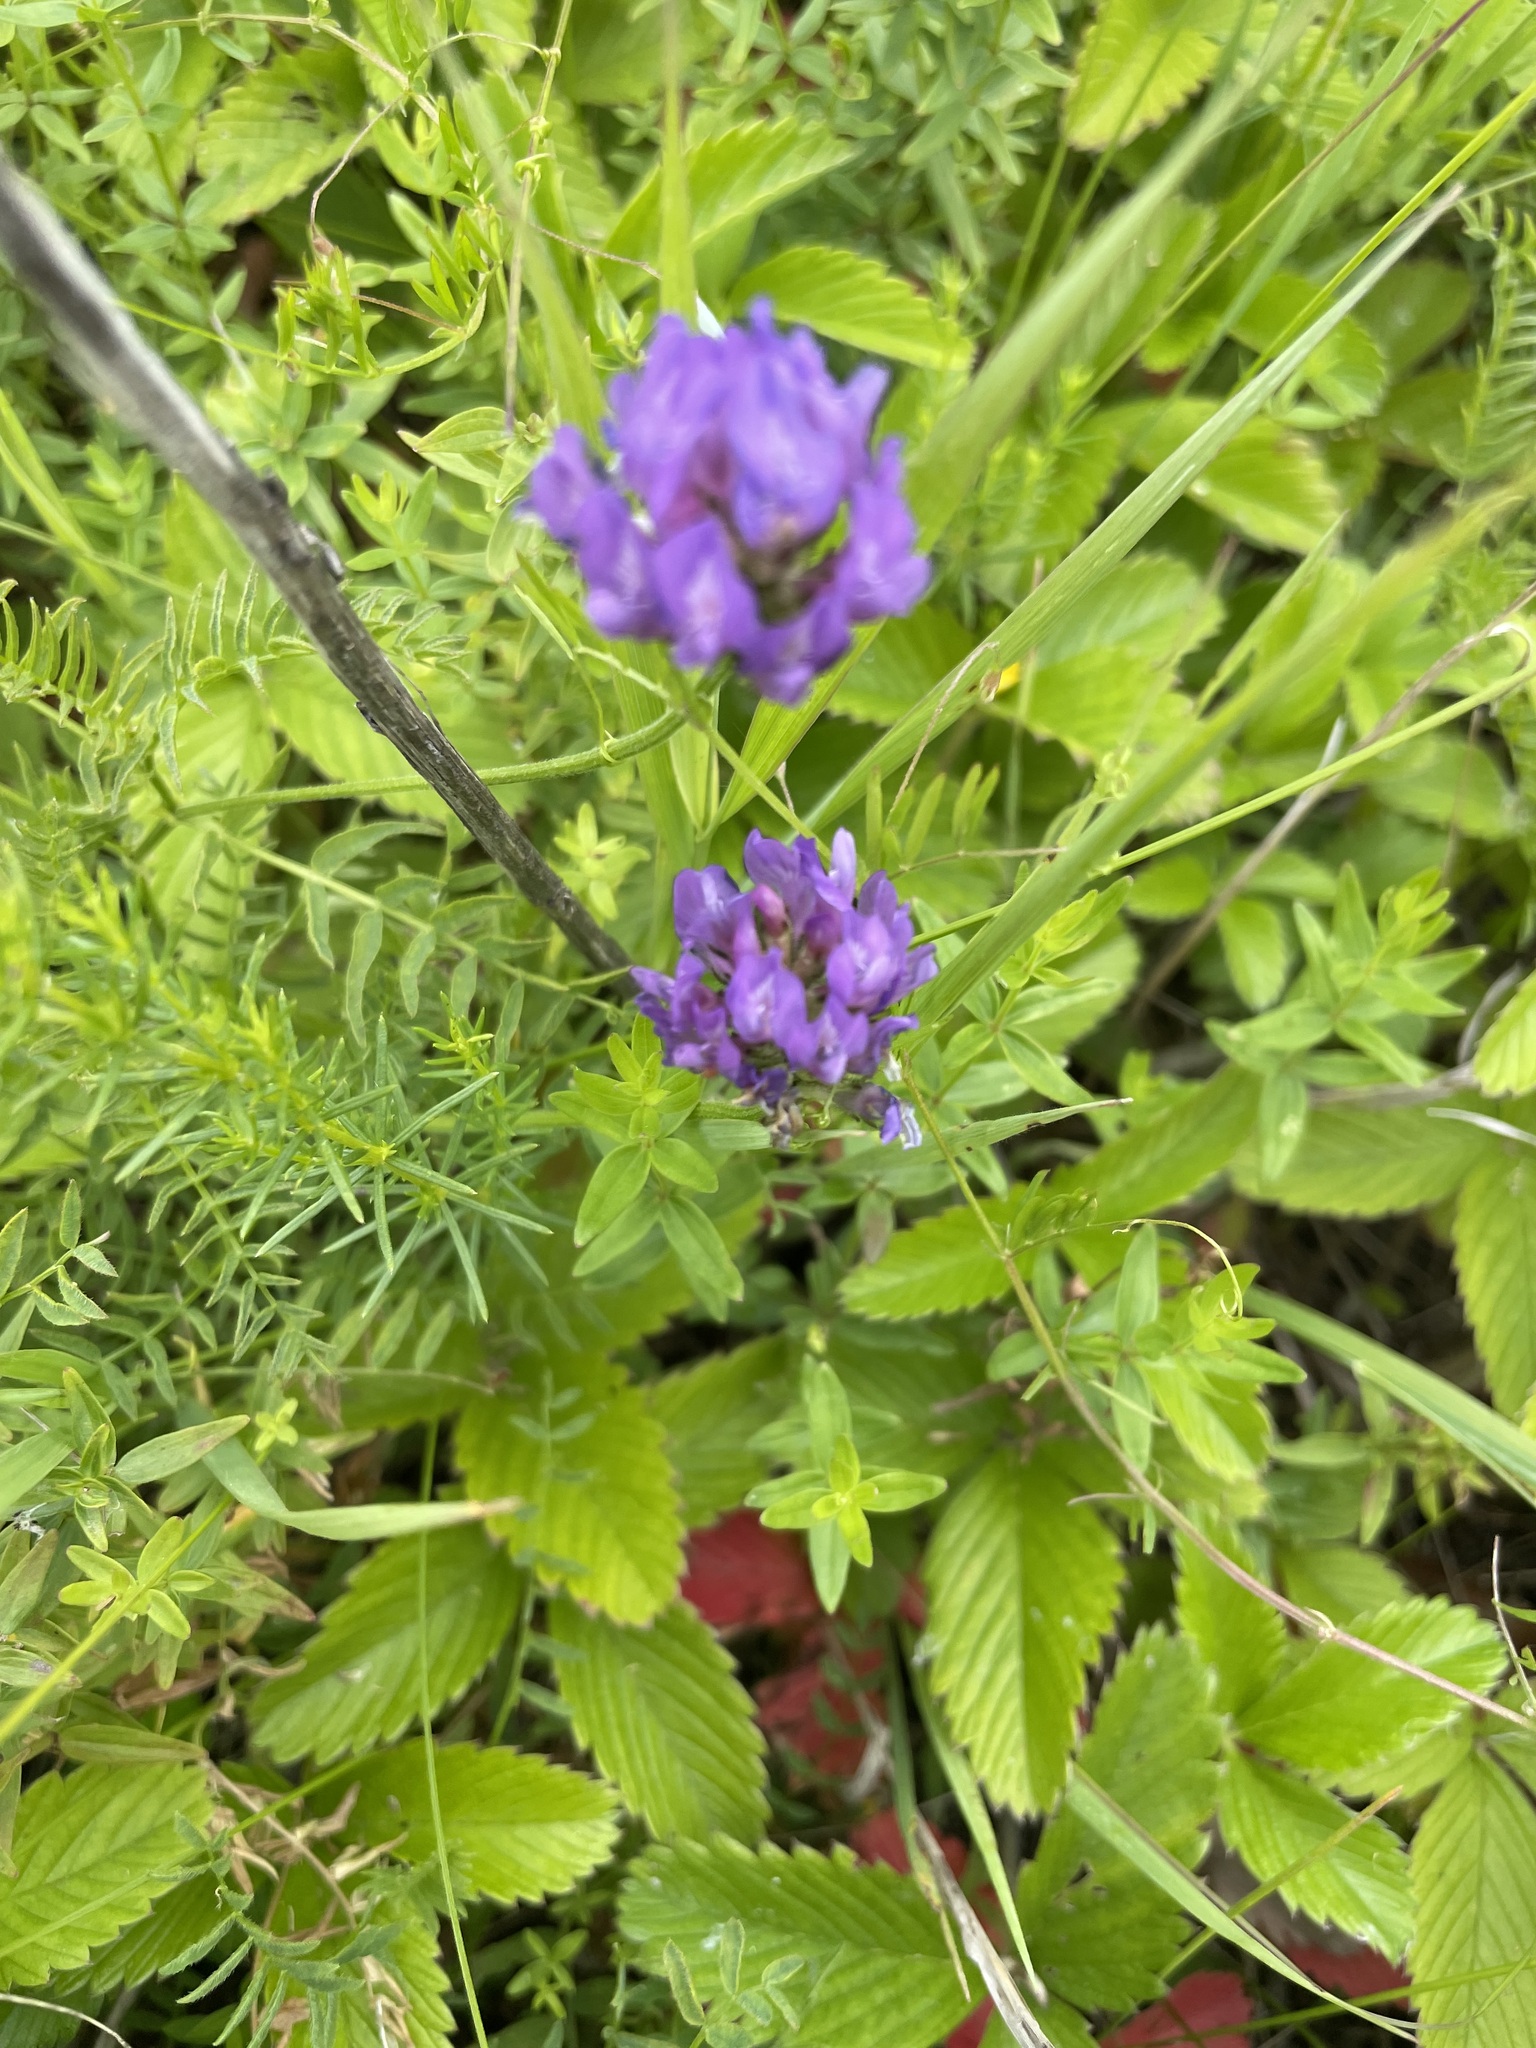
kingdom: Plantae
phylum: Tracheophyta
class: Magnoliopsida
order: Fabales
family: Fabaceae
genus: Astragalus
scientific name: Astragalus danicus
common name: Purple milk-vetch
